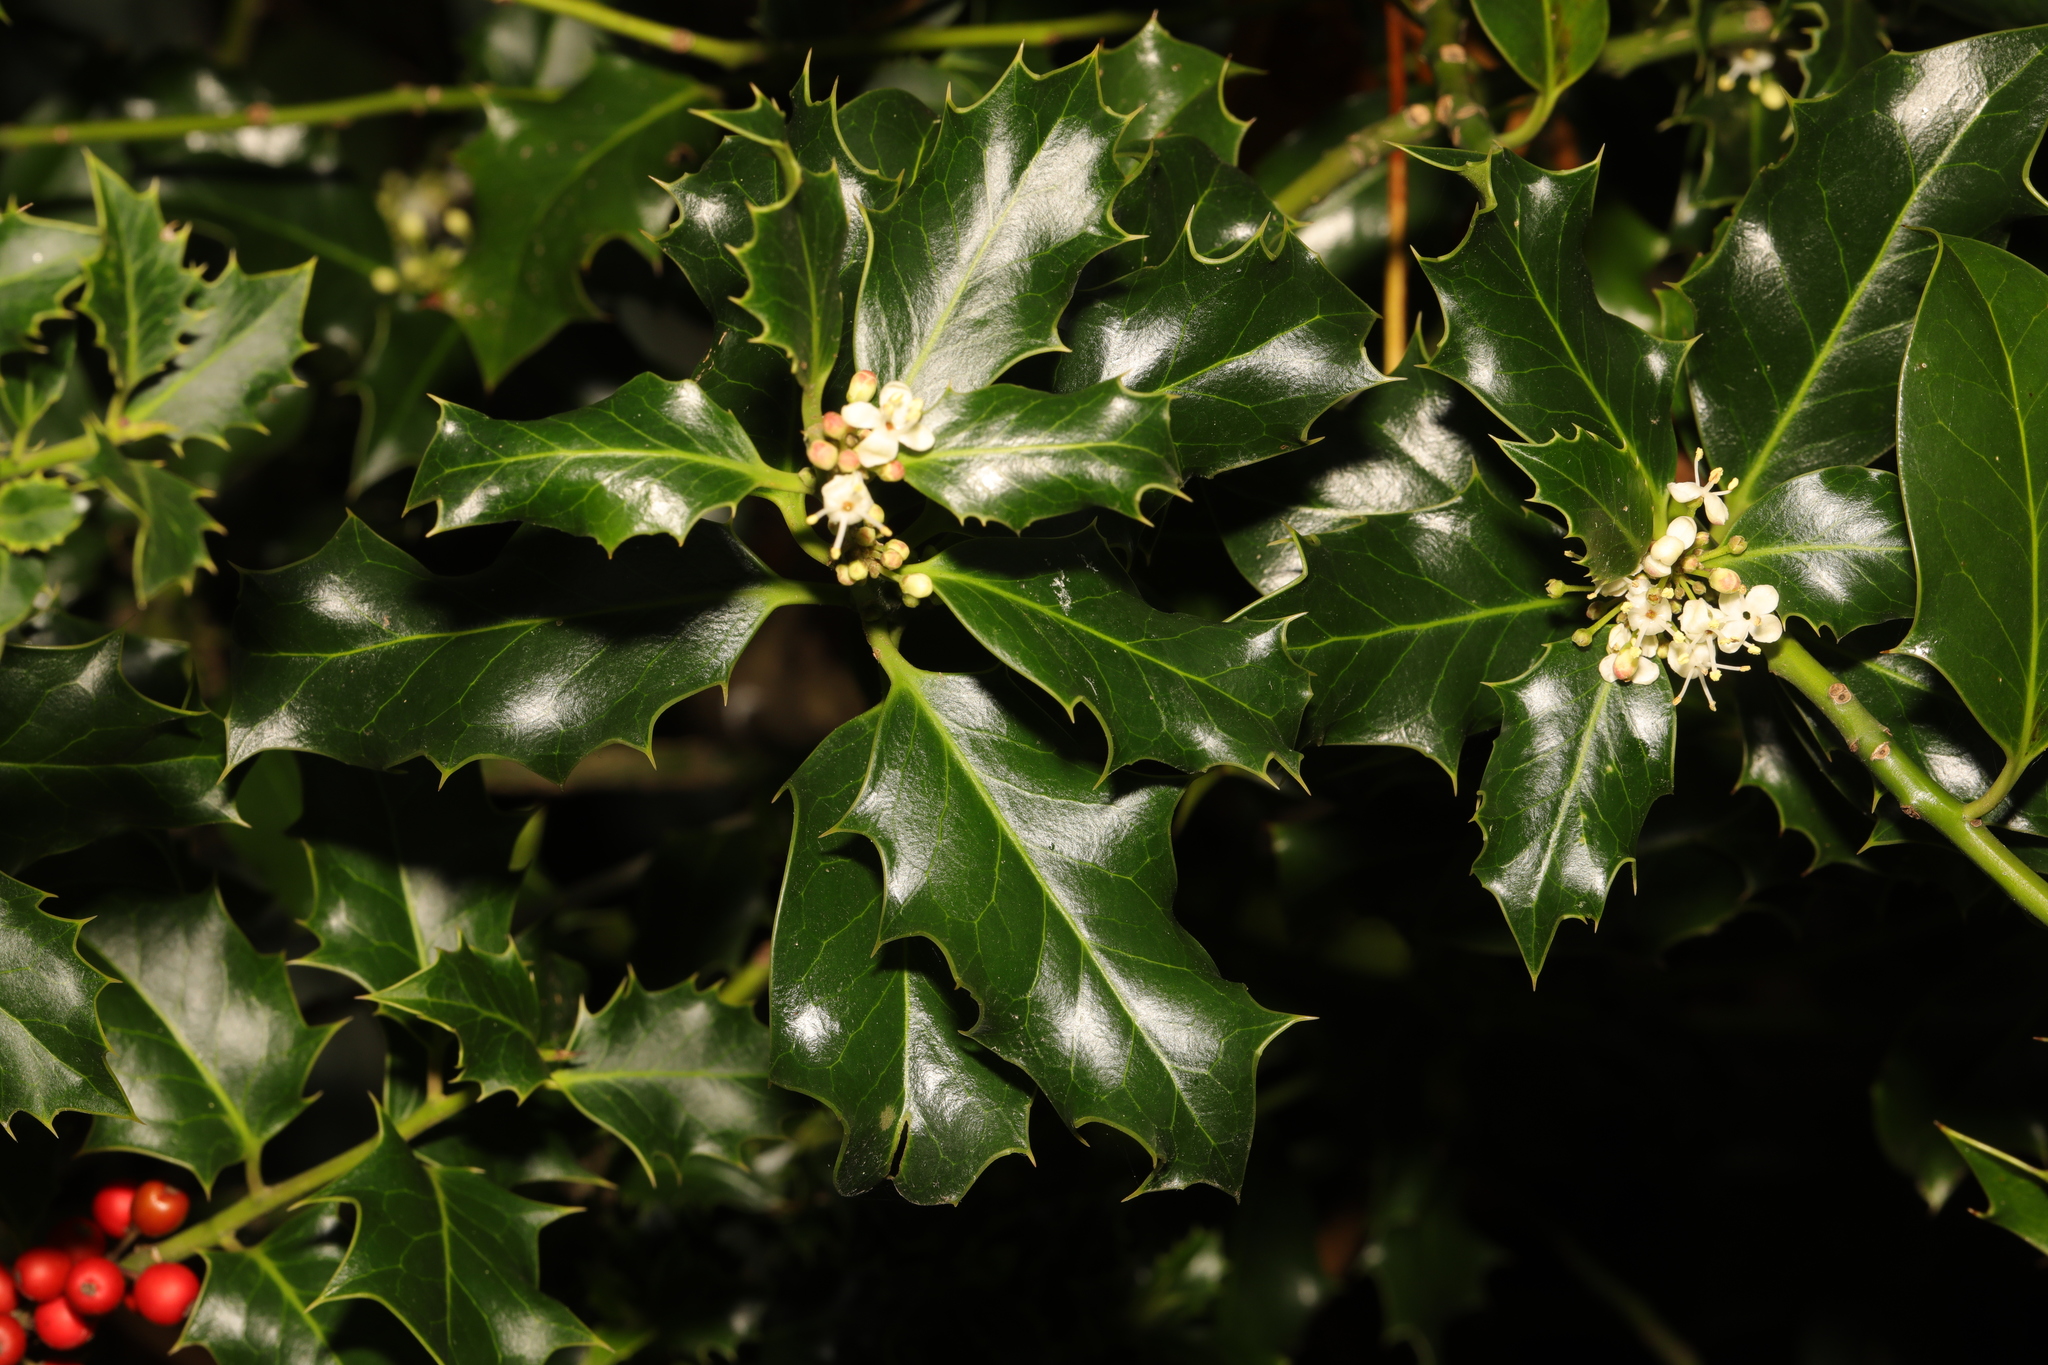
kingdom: Plantae
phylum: Tracheophyta
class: Magnoliopsida
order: Aquifoliales
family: Aquifoliaceae
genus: Ilex
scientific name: Ilex aquifolium
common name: English holly
